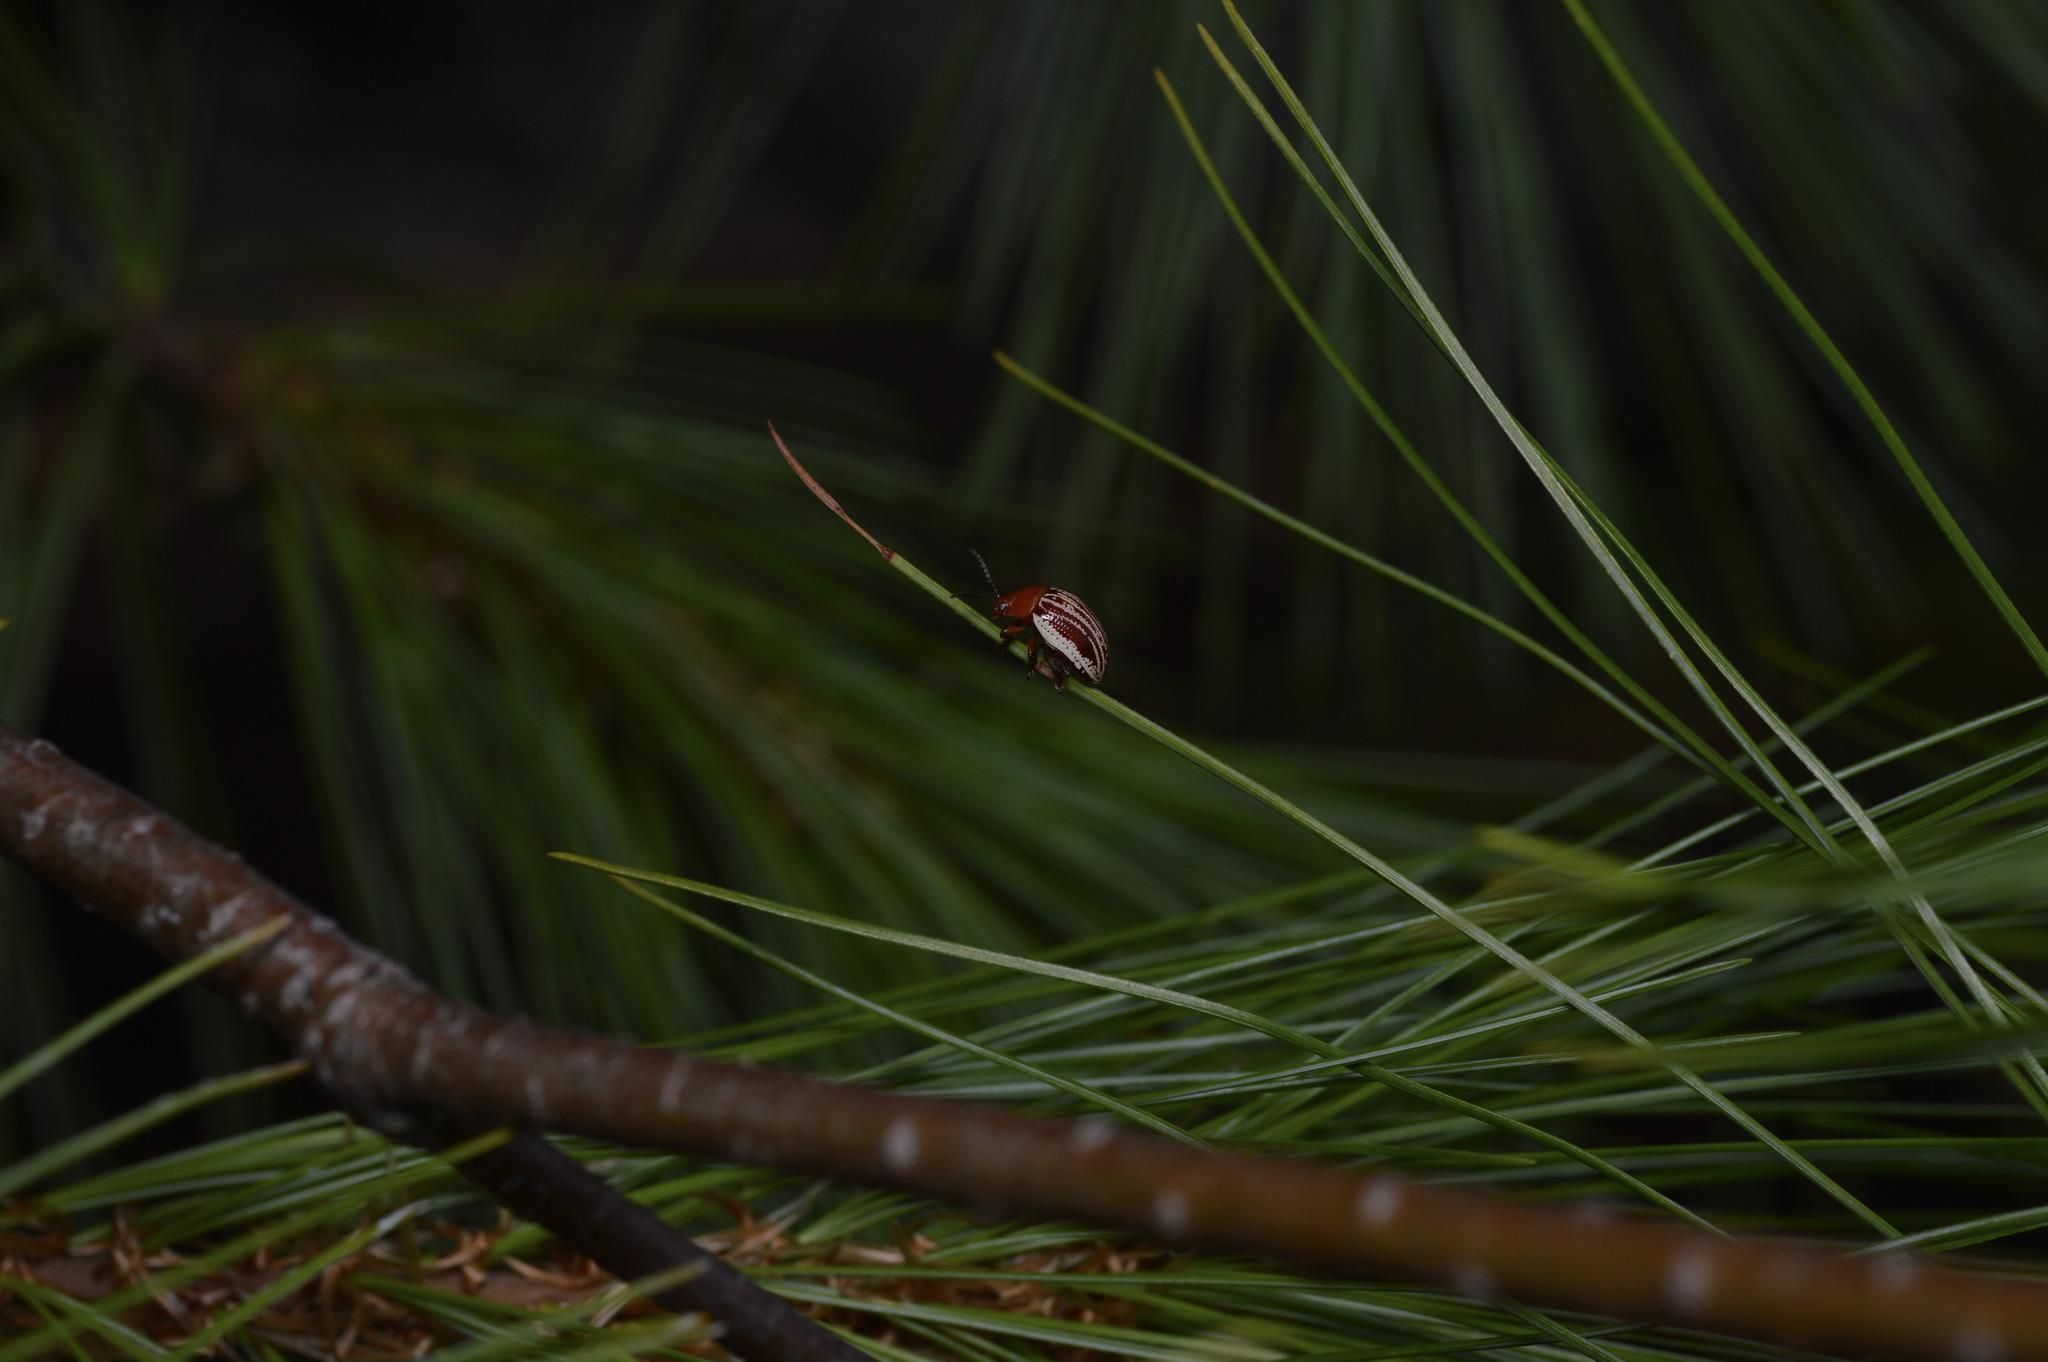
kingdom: Animalia
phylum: Arthropoda
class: Insecta
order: Coleoptera
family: Chrysomelidae
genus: Blepharida
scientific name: Blepharida rhois
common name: Sumac flea beetle
